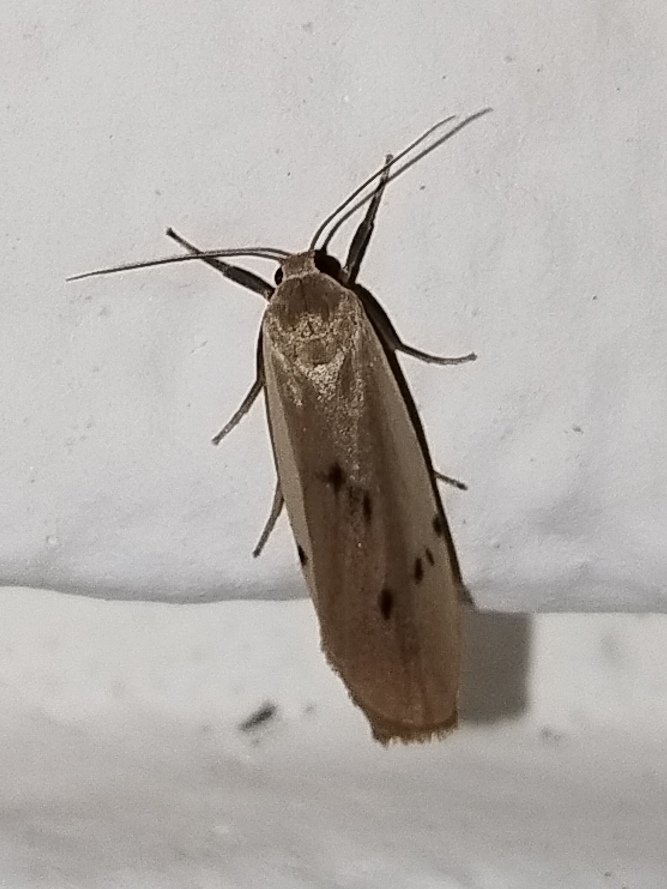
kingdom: Animalia
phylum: Arthropoda
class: Insecta
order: Lepidoptera
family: Erebidae
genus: Pelosia
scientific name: Pelosia muscerda
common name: Dotted footman
